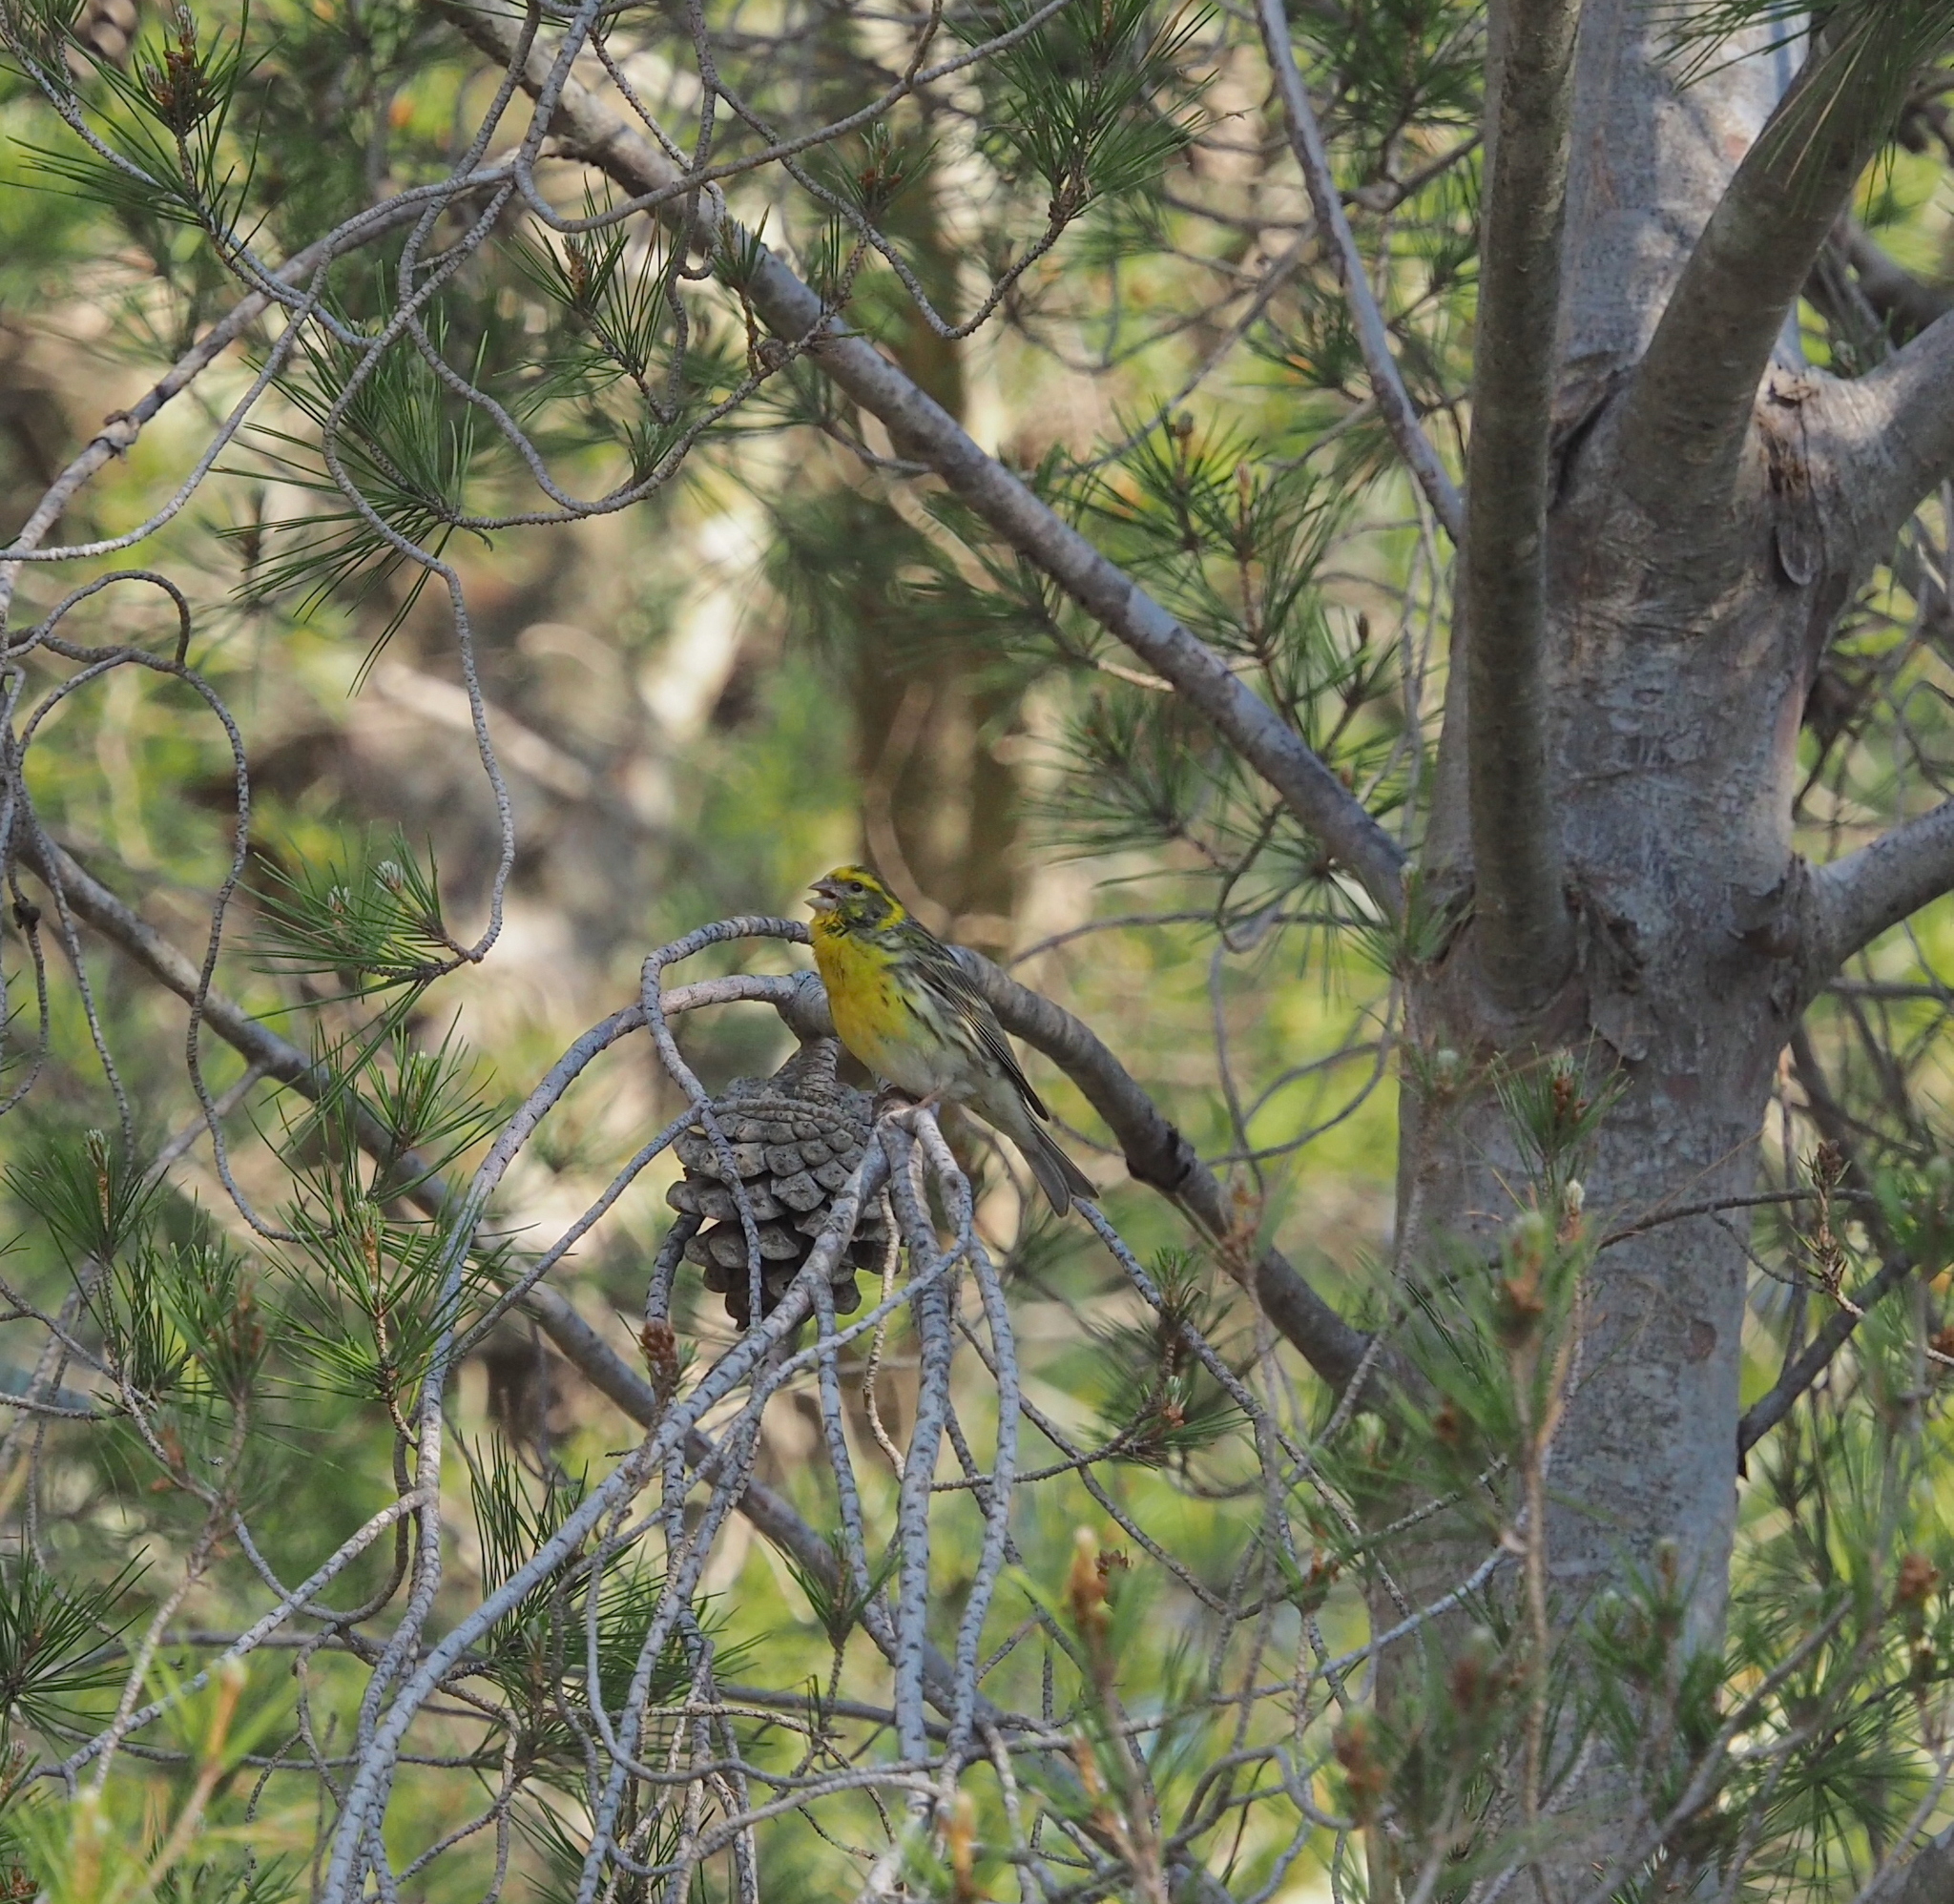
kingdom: Animalia
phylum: Chordata
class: Aves
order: Passeriformes
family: Fringillidae
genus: Serinus
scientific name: Serinus serinus
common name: European serin
